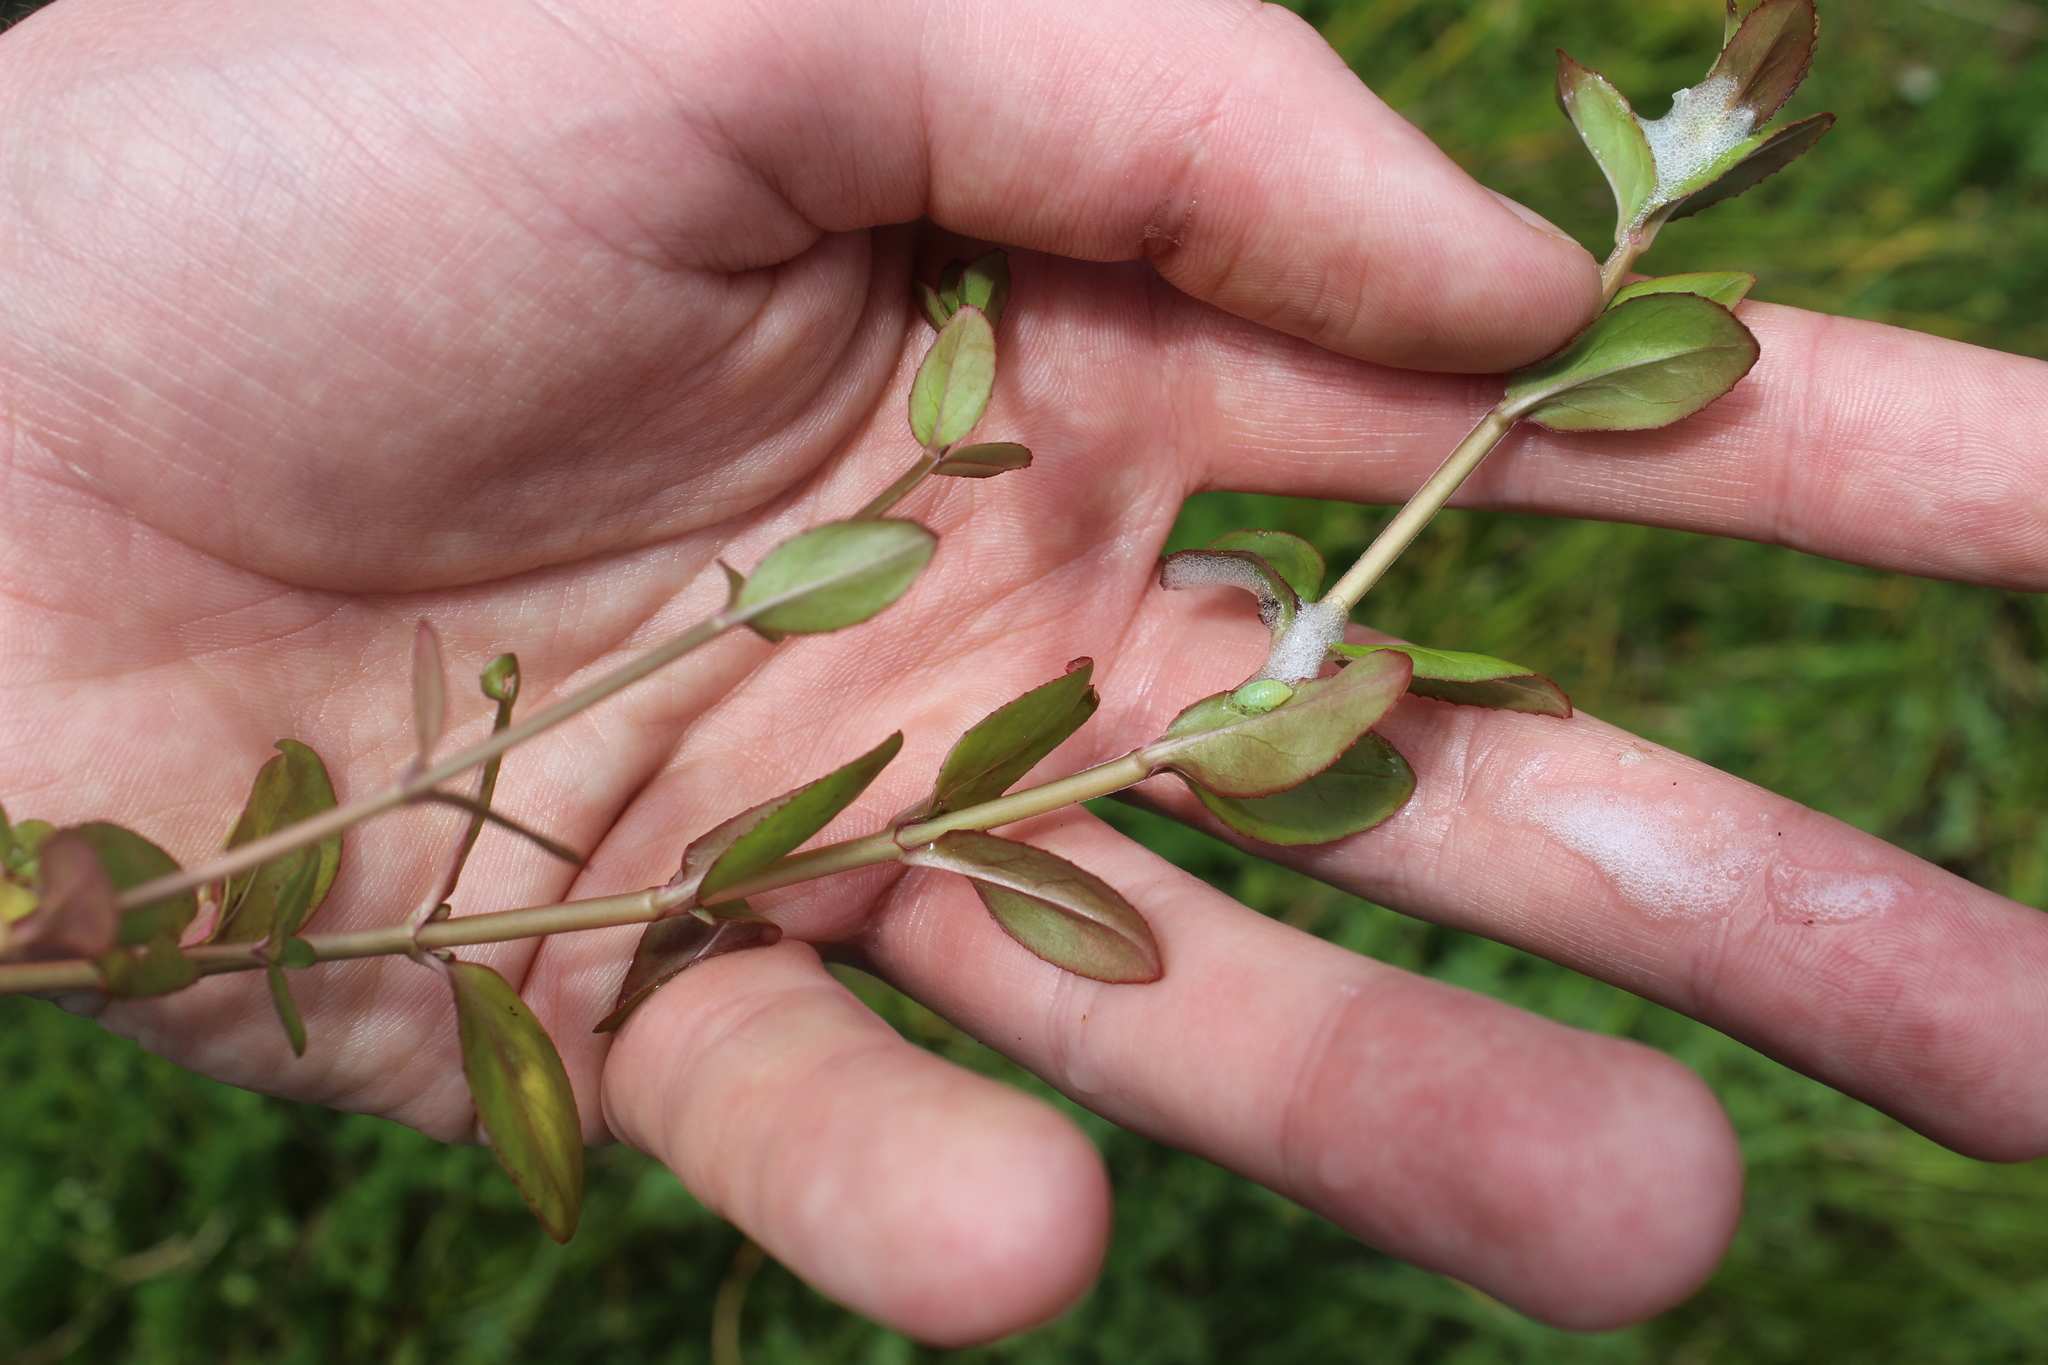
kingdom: Plantae
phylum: Tracheophyta
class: Magnoliopsida
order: Myrtales
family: Onagraceae
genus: Epilobium
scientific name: Epilobium chionanthum
